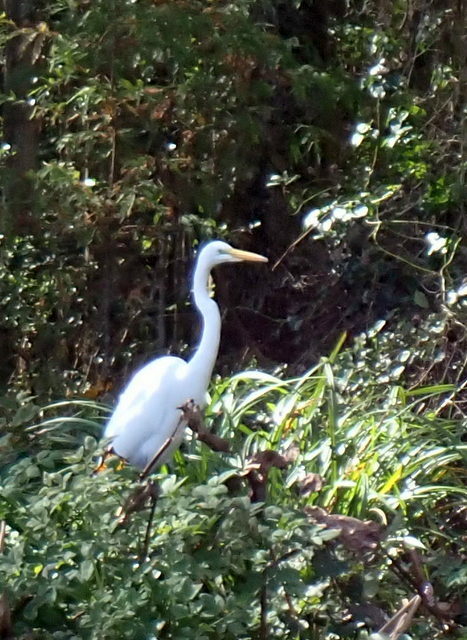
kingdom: Animalia
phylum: Chordata
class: Aves
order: Pelecaniformes
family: Ardeidae
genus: Ardea
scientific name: Ardea alba
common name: Great egret
